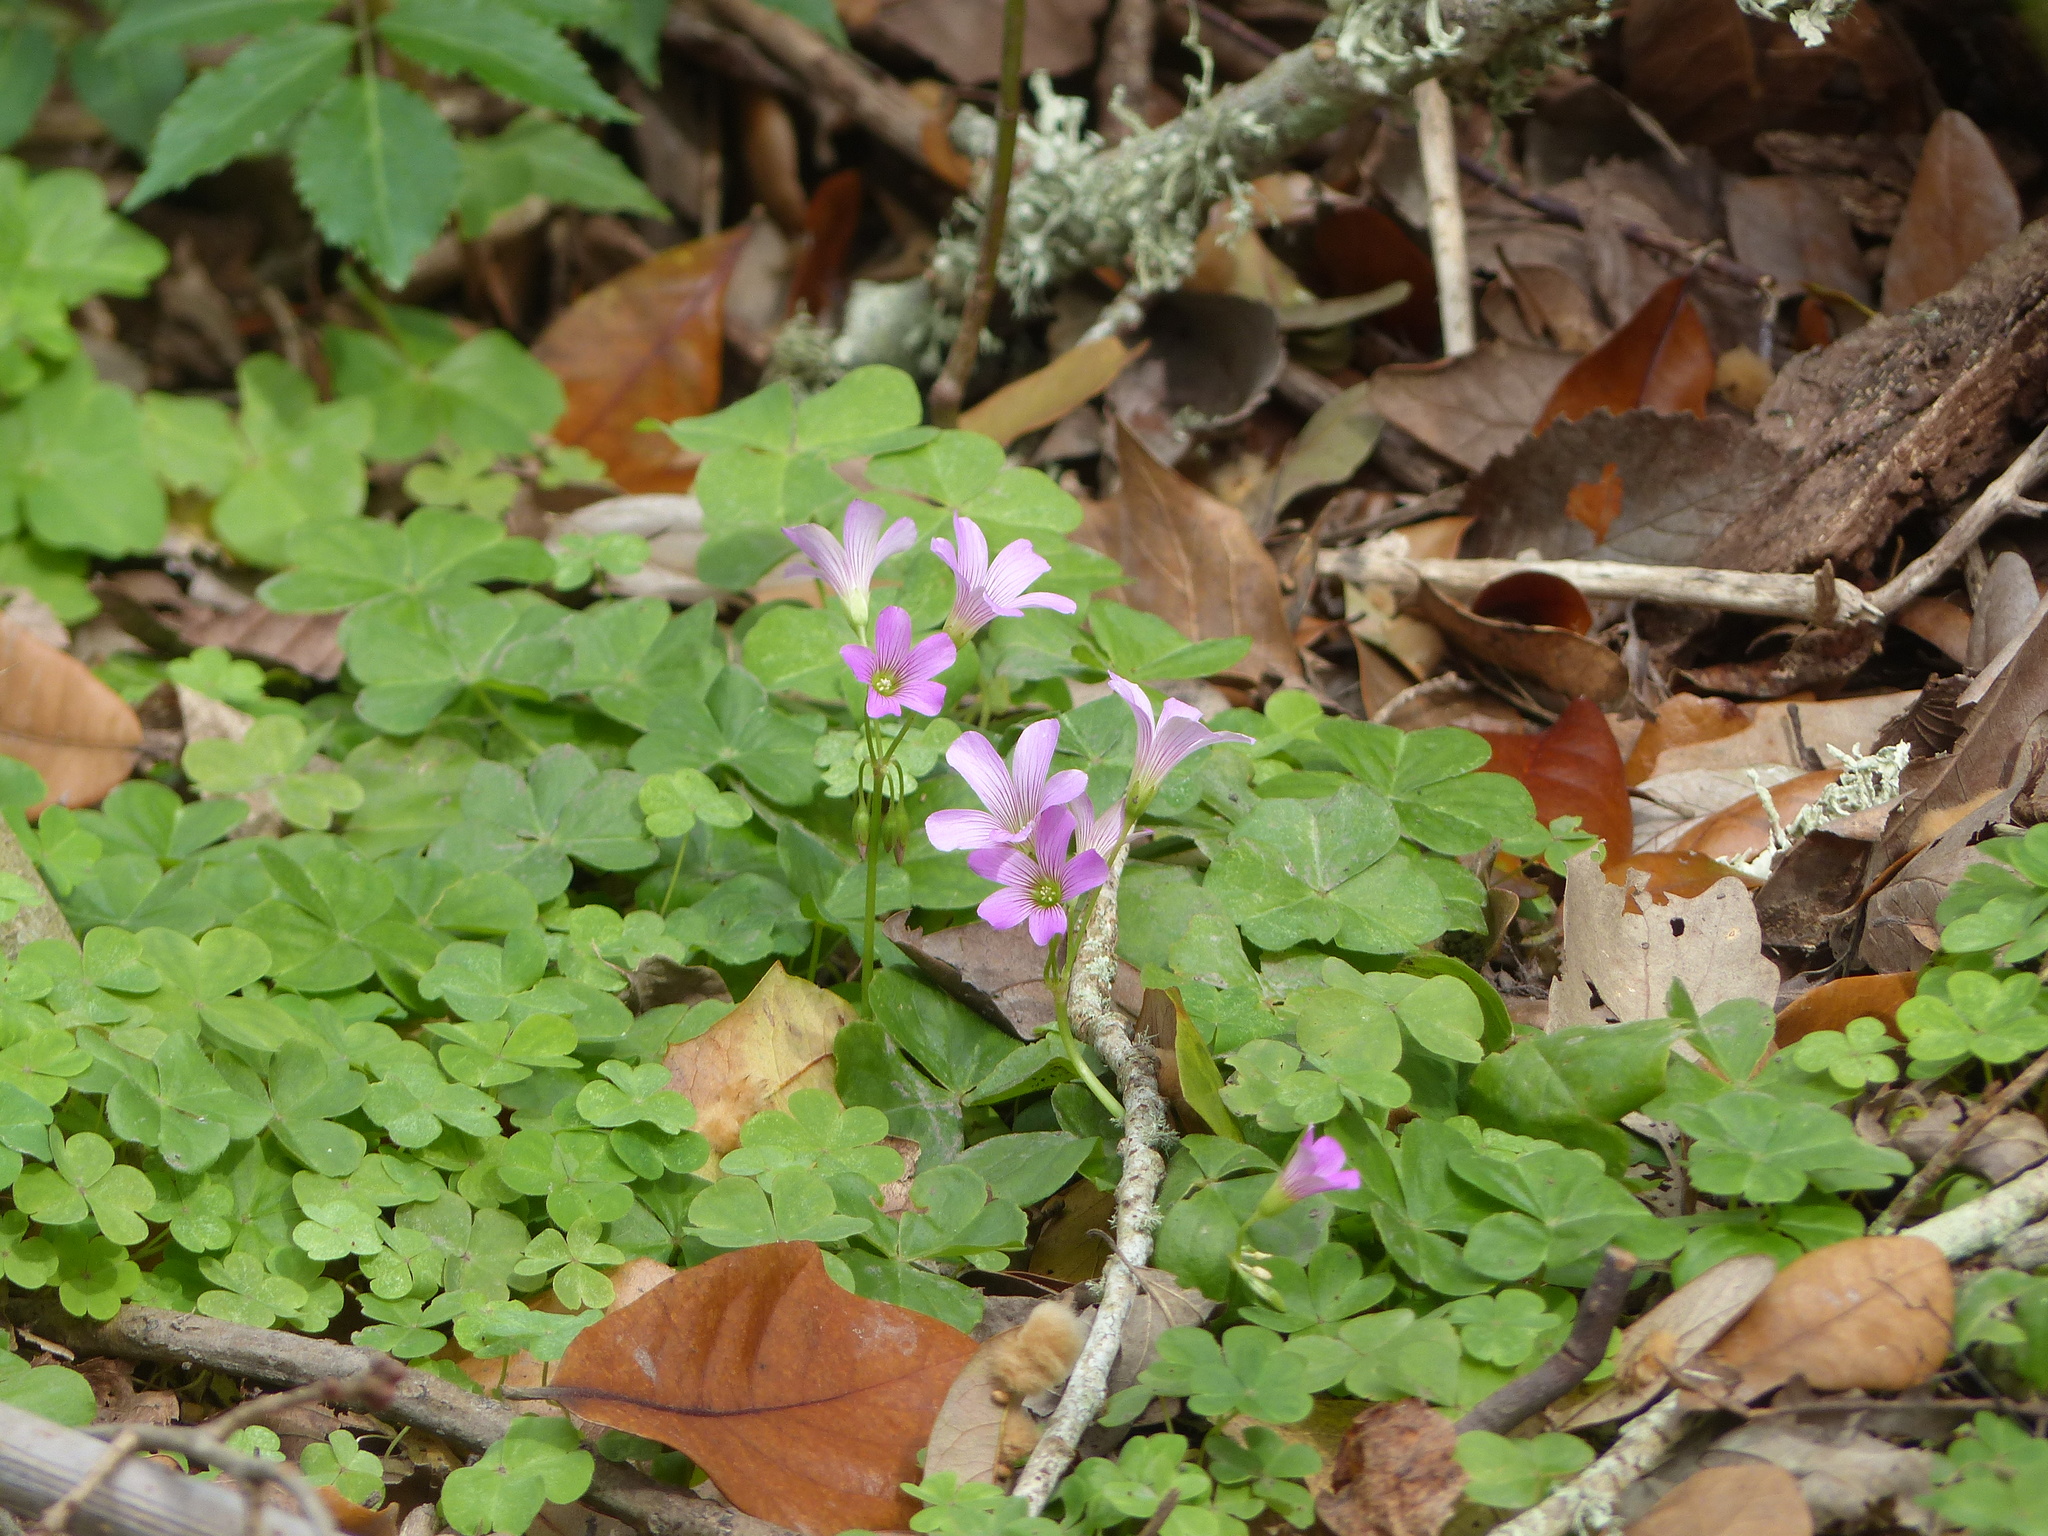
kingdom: Plantae
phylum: Tracheophyta
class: Magnoliopsida
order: Oxalidales
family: Oxalidaceae
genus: Oxalis
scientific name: Oxalis debilis
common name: Large-flowered pink-sorrel
